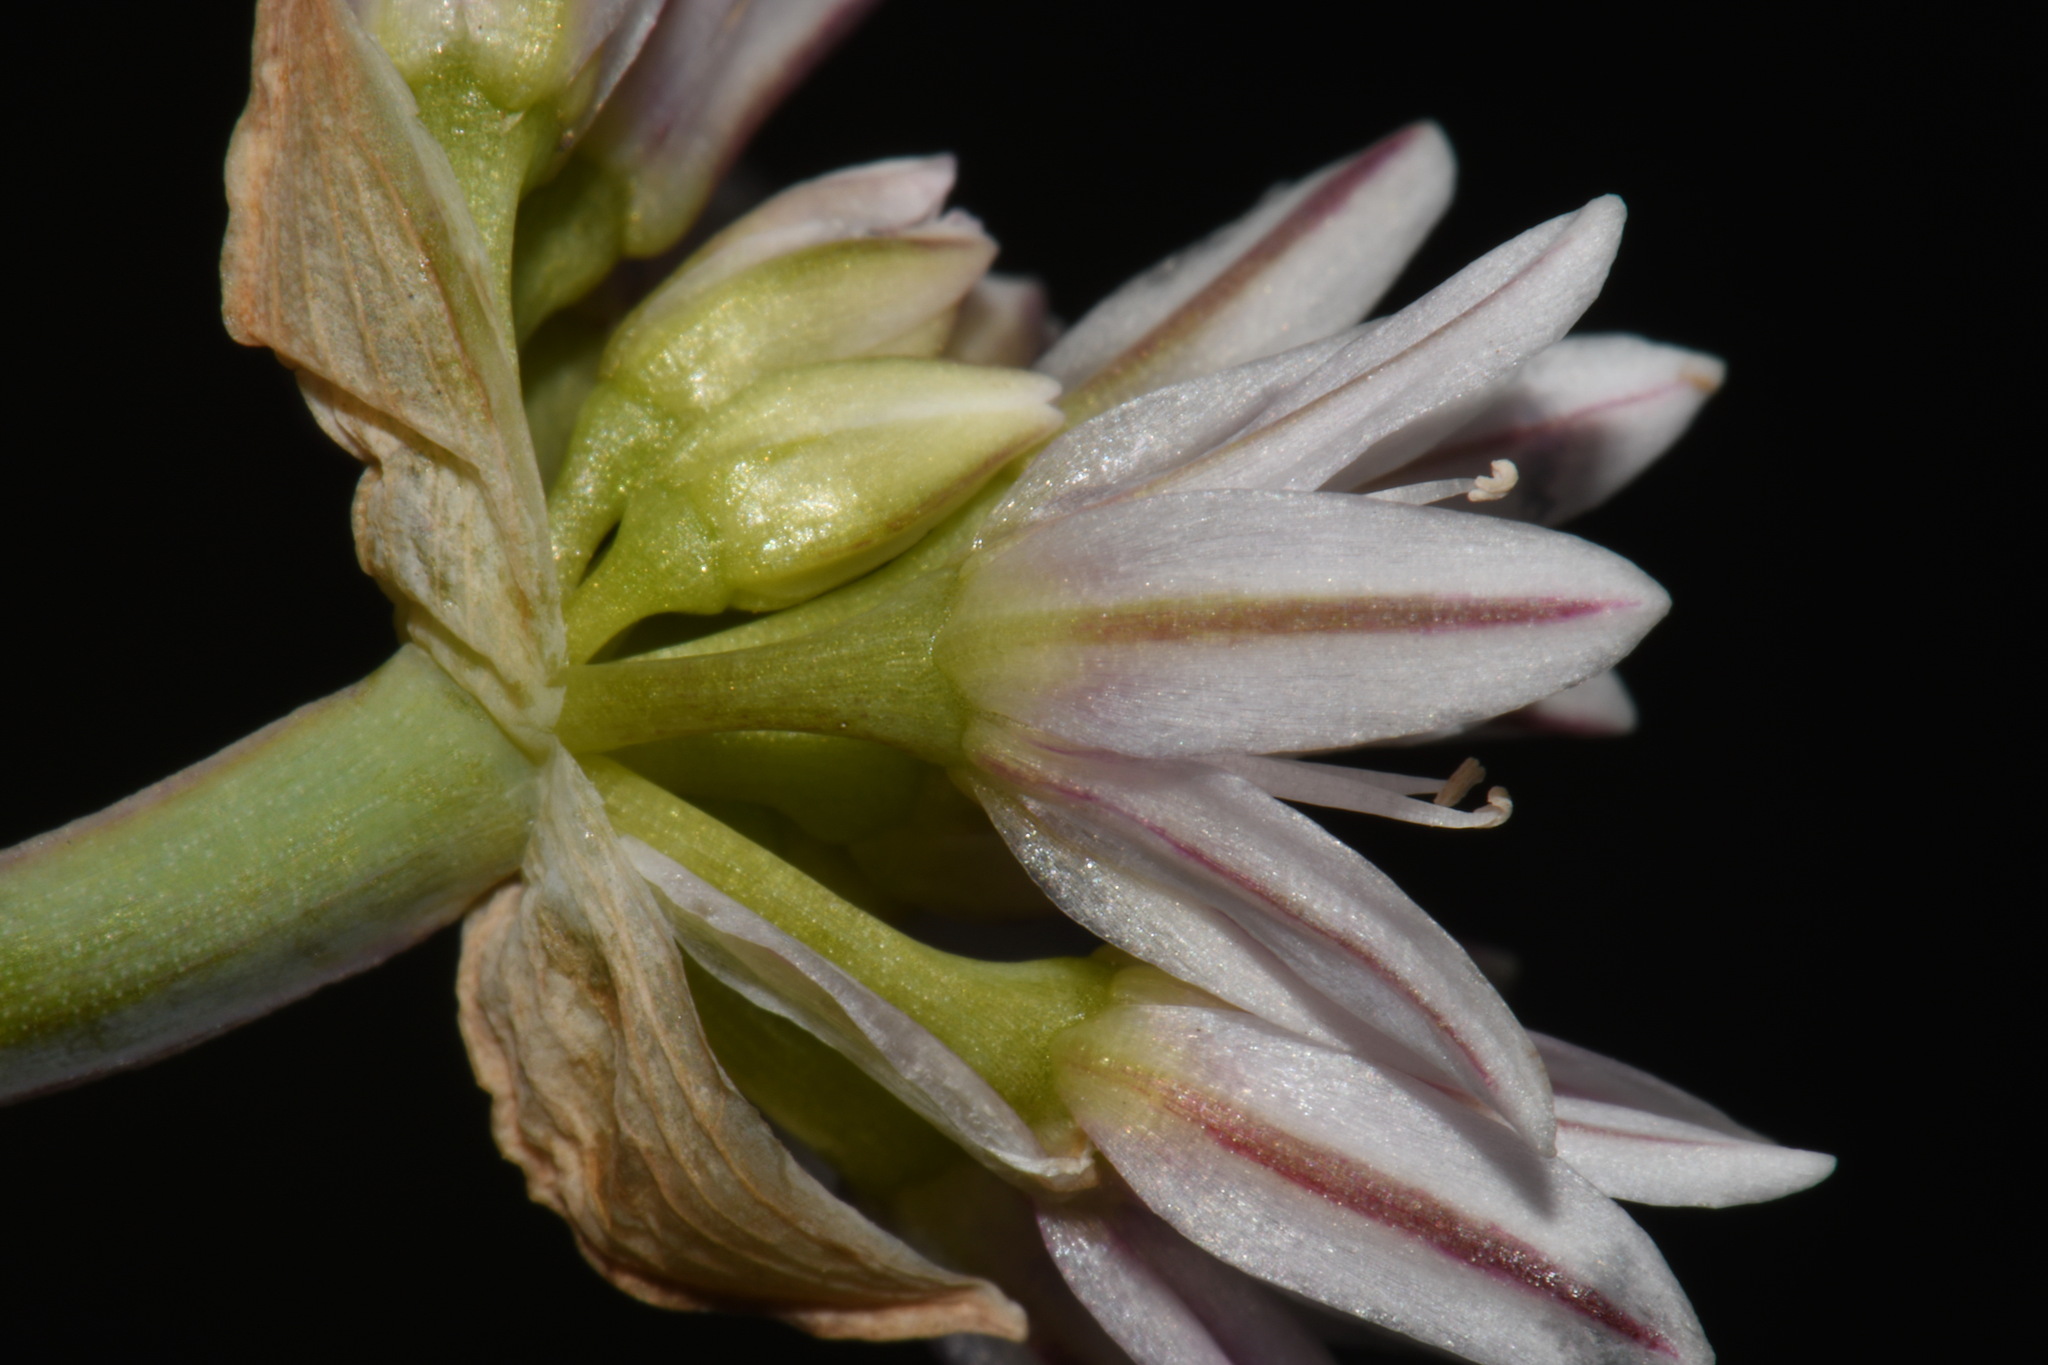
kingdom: Plantae
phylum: Tracheophyta
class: Liliopsida
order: Asparagales
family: Amaryllidaceae
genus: Allium
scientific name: Allium crenulatum
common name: Olympic onion
